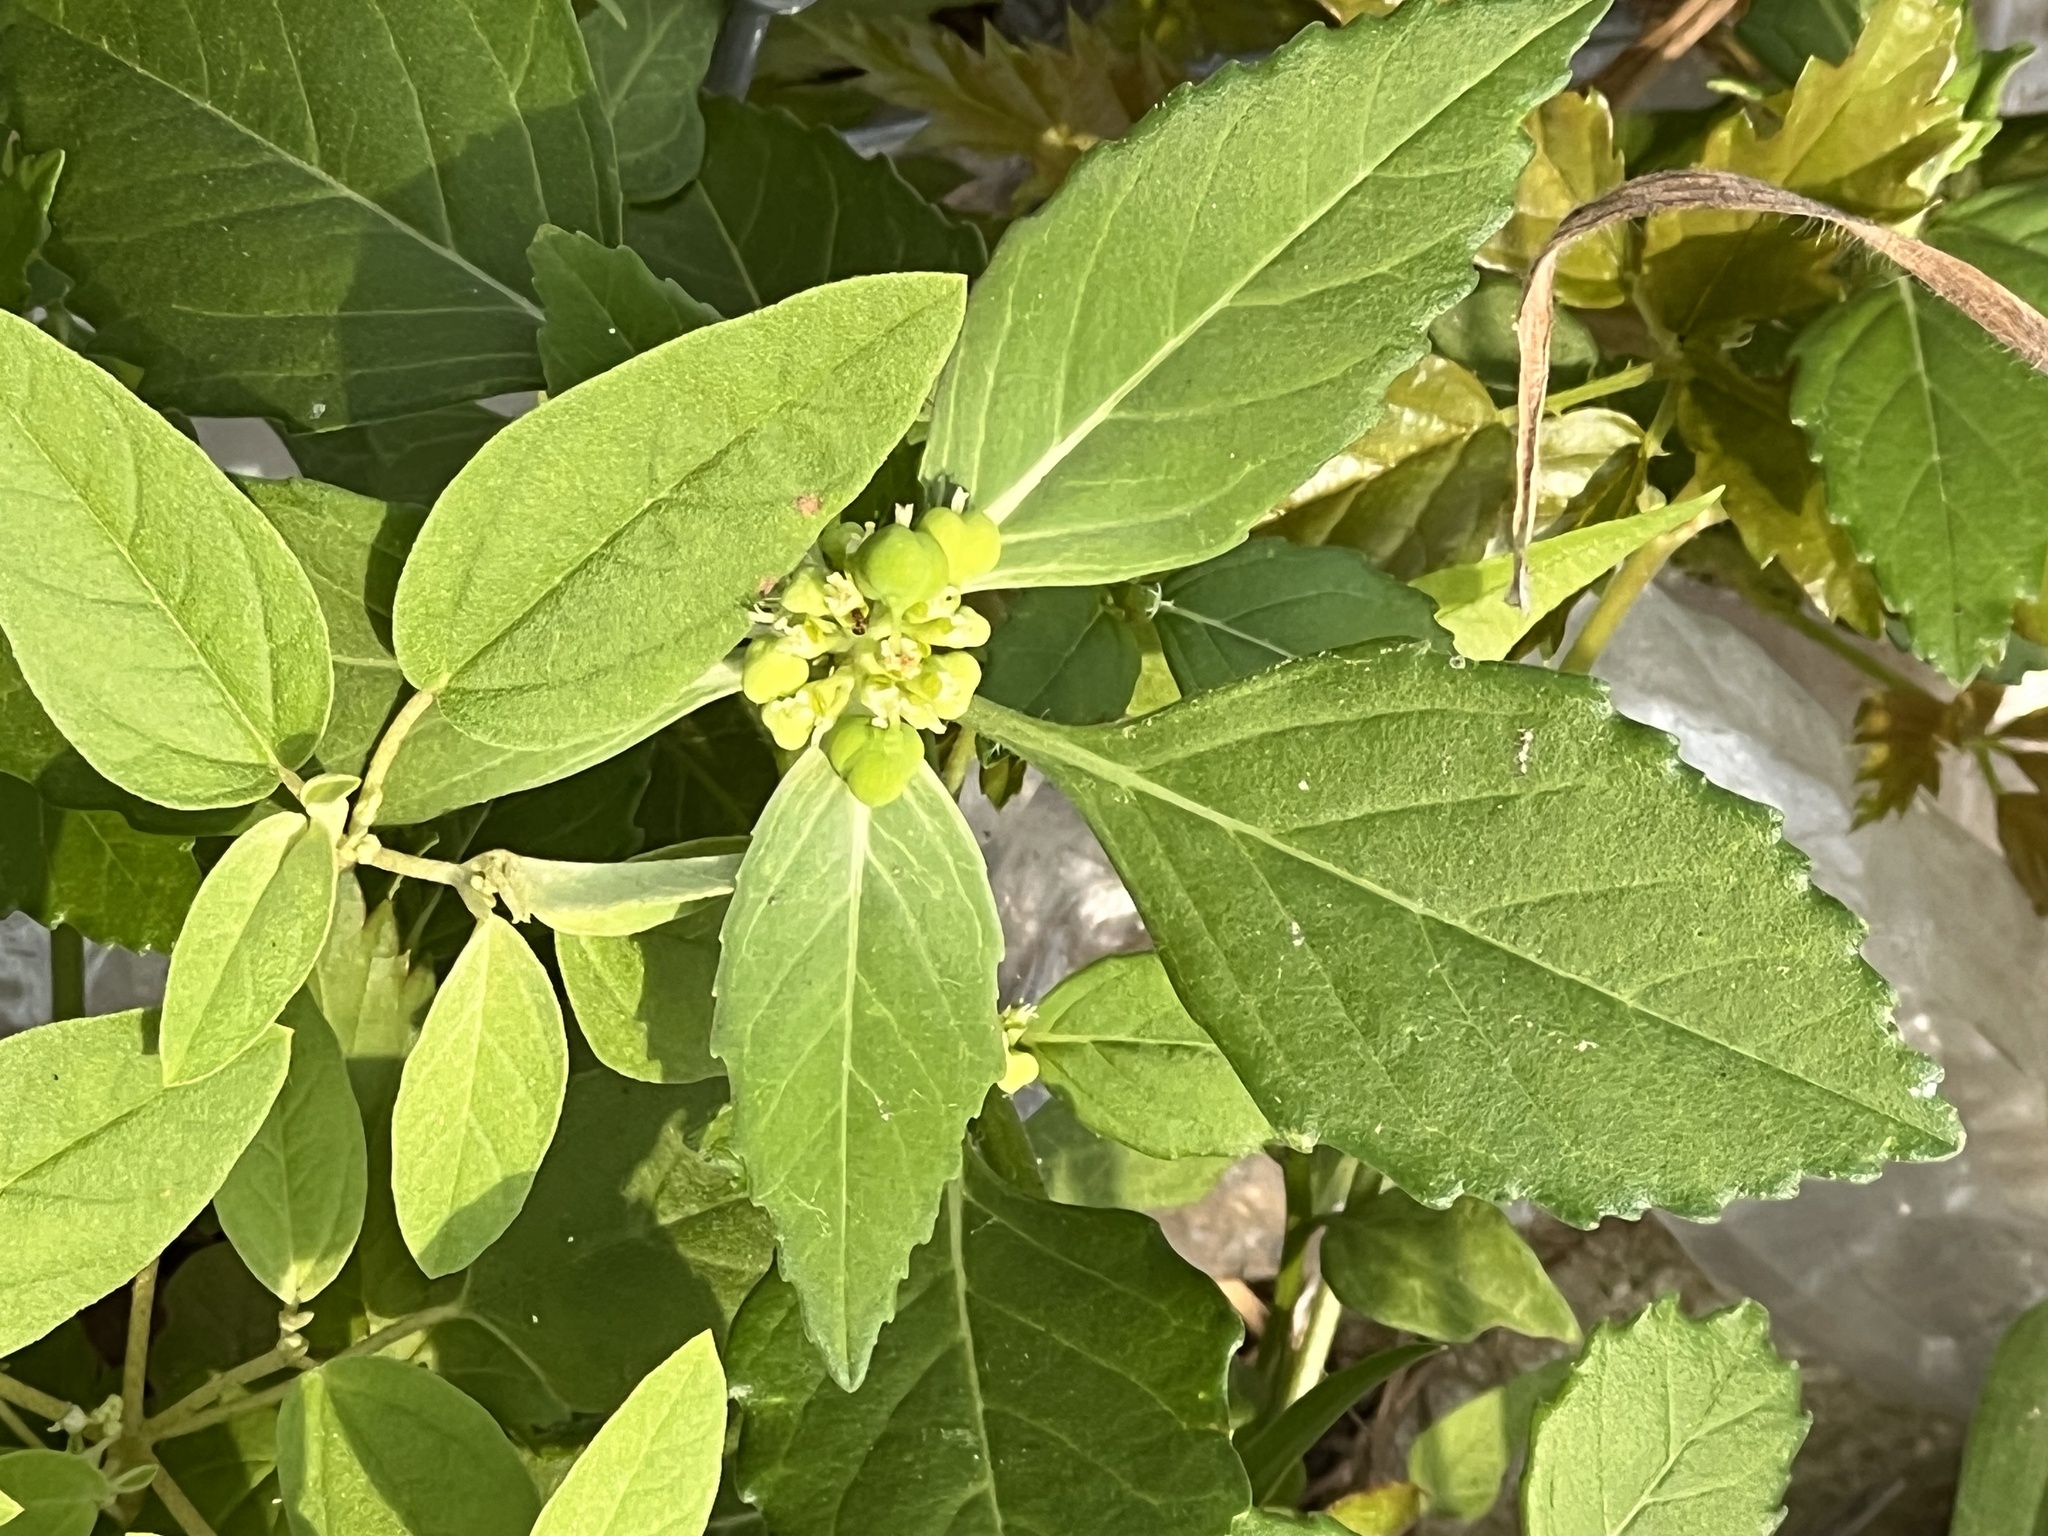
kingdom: Plantae
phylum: Tracheophyta
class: Magnoliopsida
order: Malpighiales
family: Euphorbiaceae
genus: Euphorbia
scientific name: Euphorbia dentata
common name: Dentate spurge
